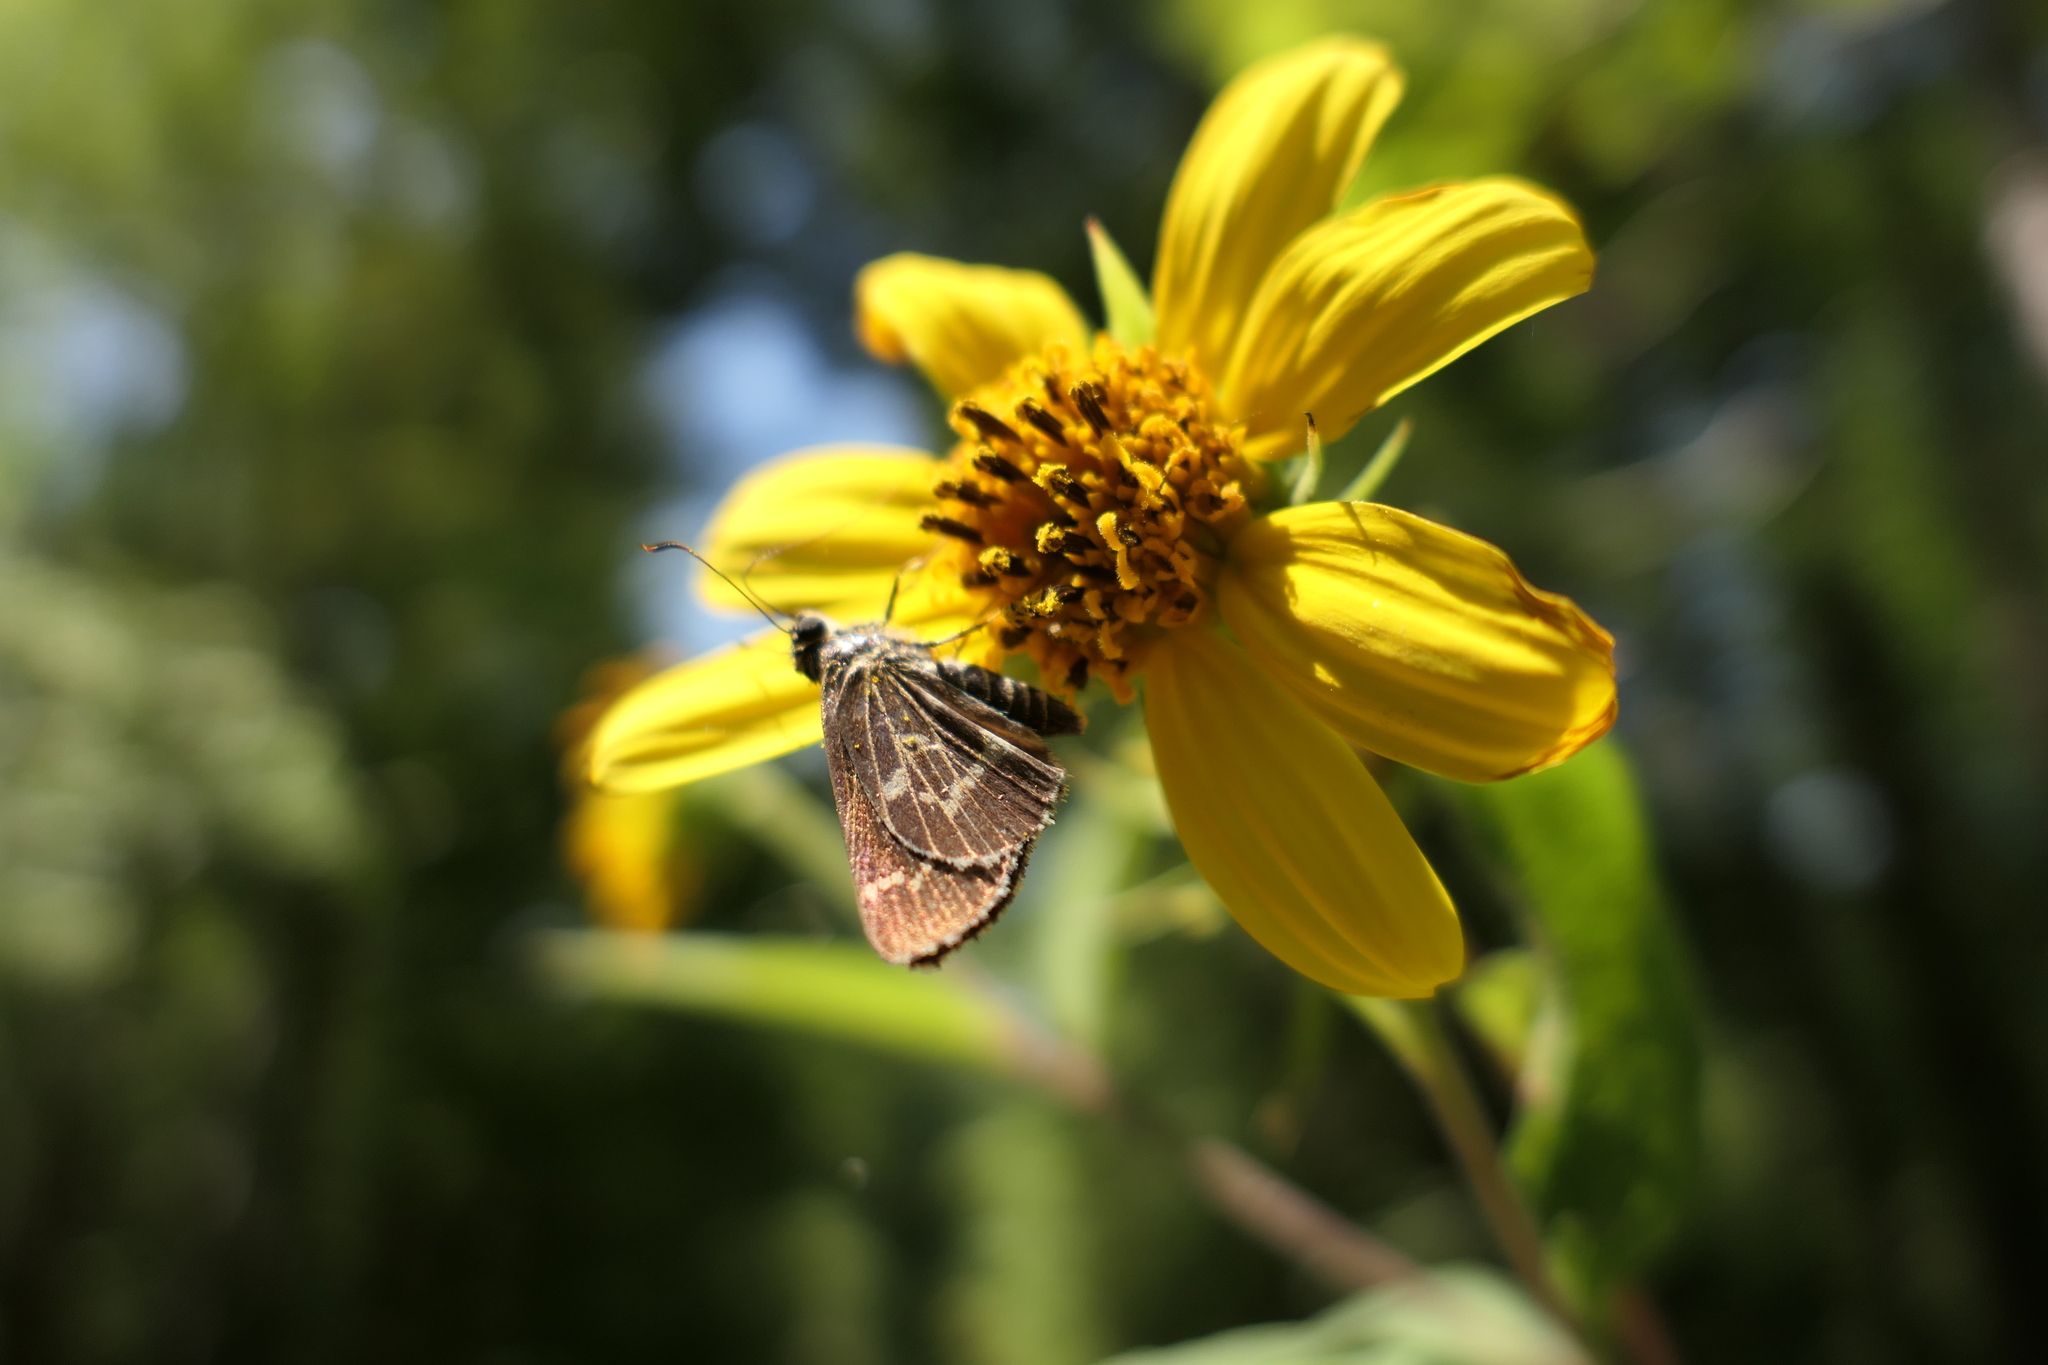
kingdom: Animalia
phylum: Arthropoda
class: Insecta
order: Lepidoptera
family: Hesperiidae
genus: Mastor
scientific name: Mastor aesculapius
